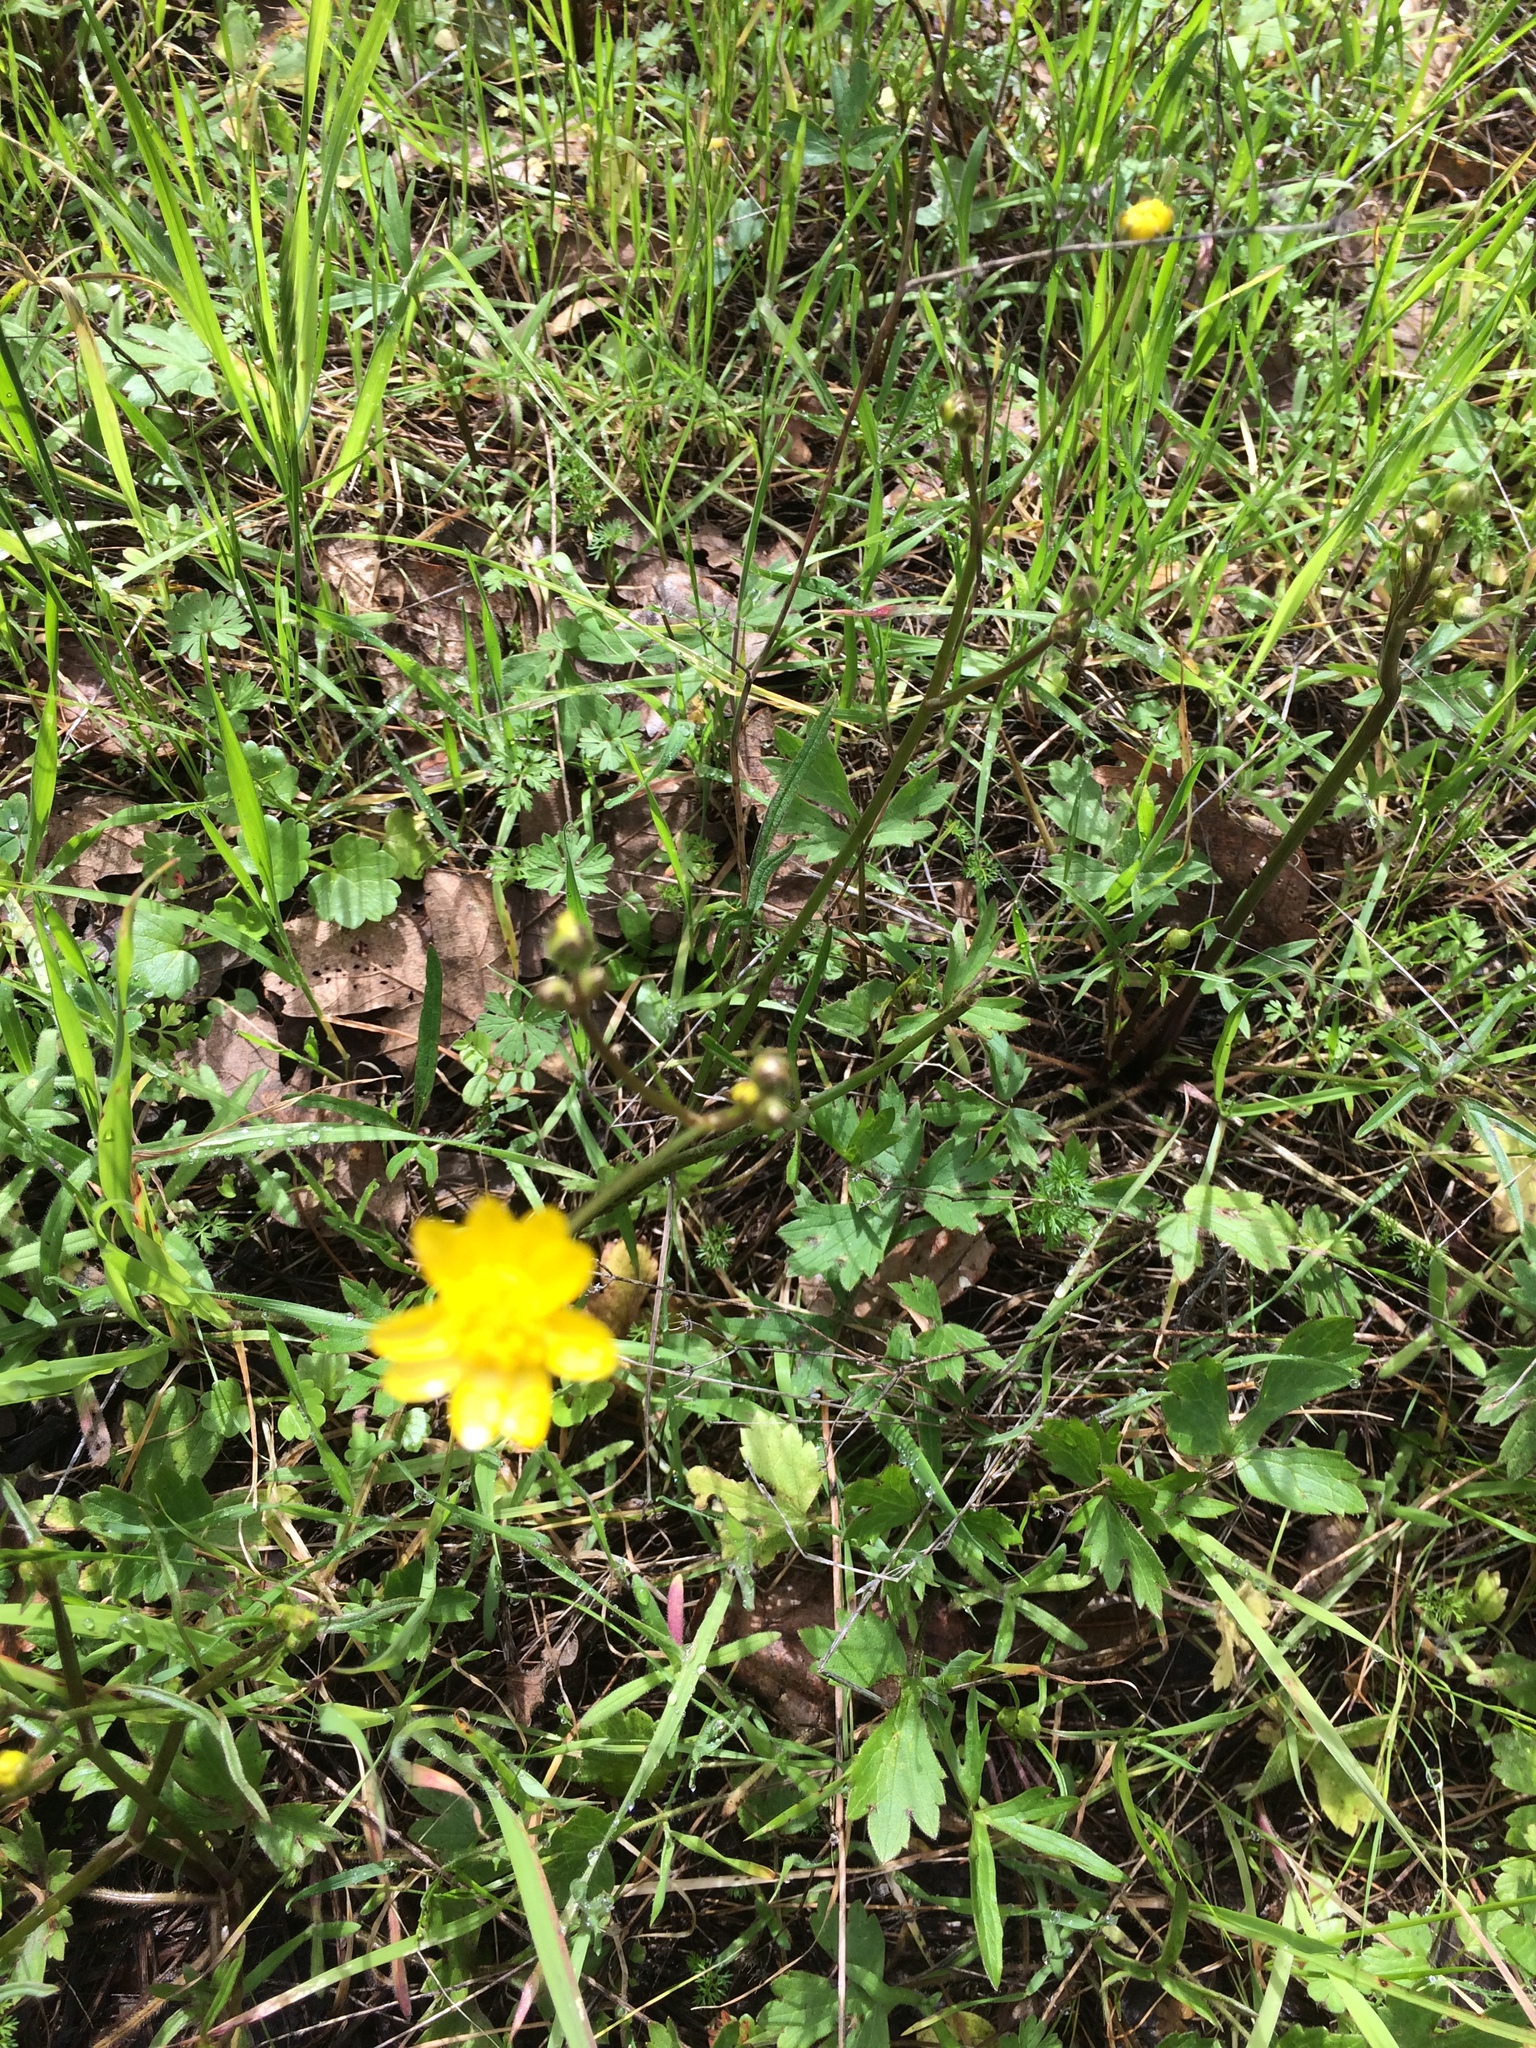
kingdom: Plantae
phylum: Tracheophyta
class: Magnoliopsida
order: Ranunculales
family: Ranunculaceae
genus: Ranunculus
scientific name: Ranunculus californicus
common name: California buttercup
